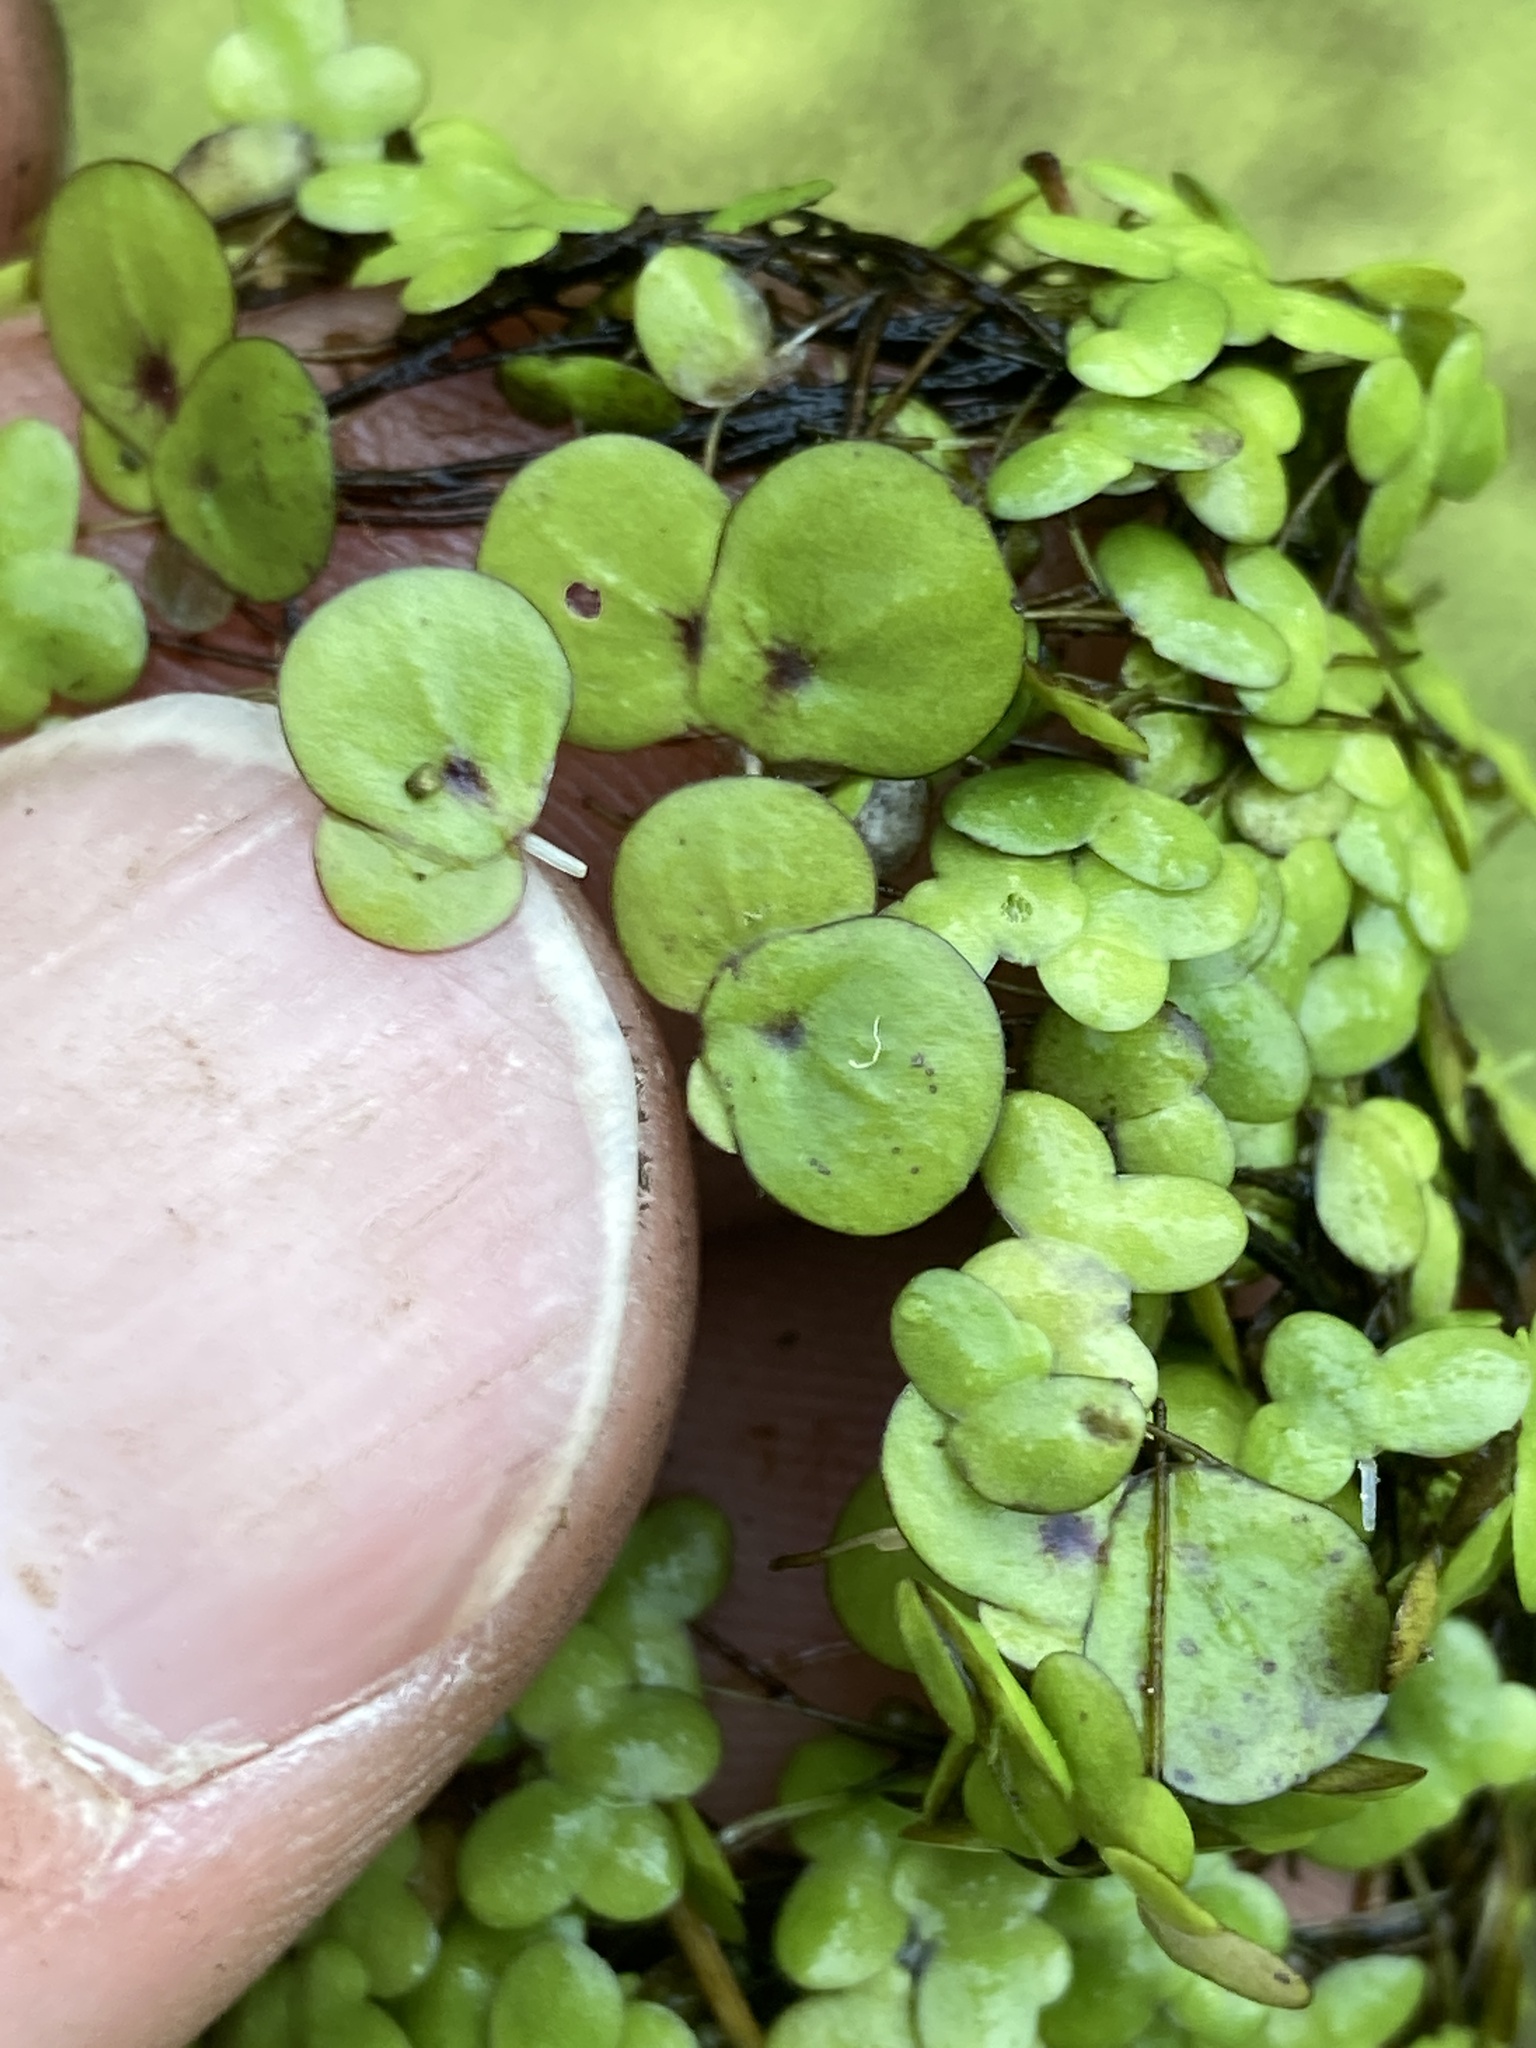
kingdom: Plantae
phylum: Tracheophyta
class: Liliopsida
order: Alismatales
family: Araceae
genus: Spirodela
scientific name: Spirodela polyrhiza
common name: Great duckweed
